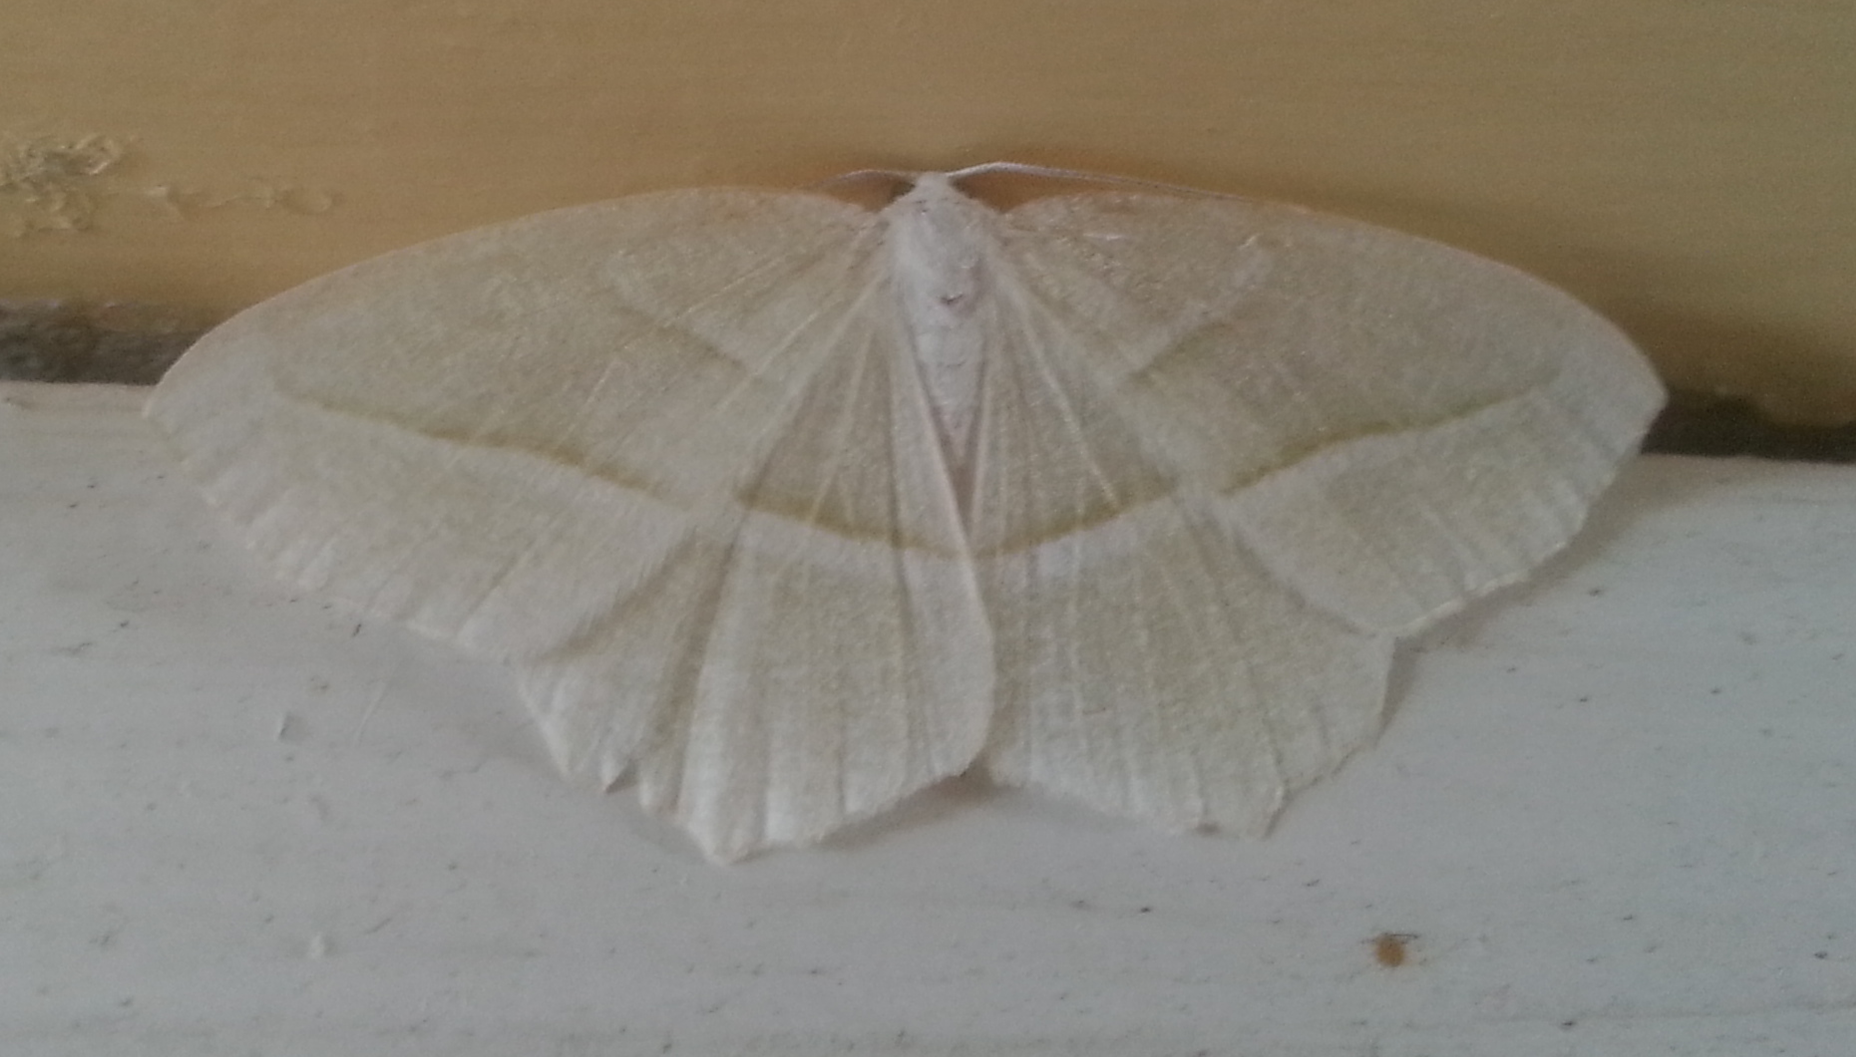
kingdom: Animalia
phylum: Arthropoda
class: Insecta
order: Lepidoptera
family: Geometridae
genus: Campaea
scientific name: Campaea perlata
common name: Fringed looper
